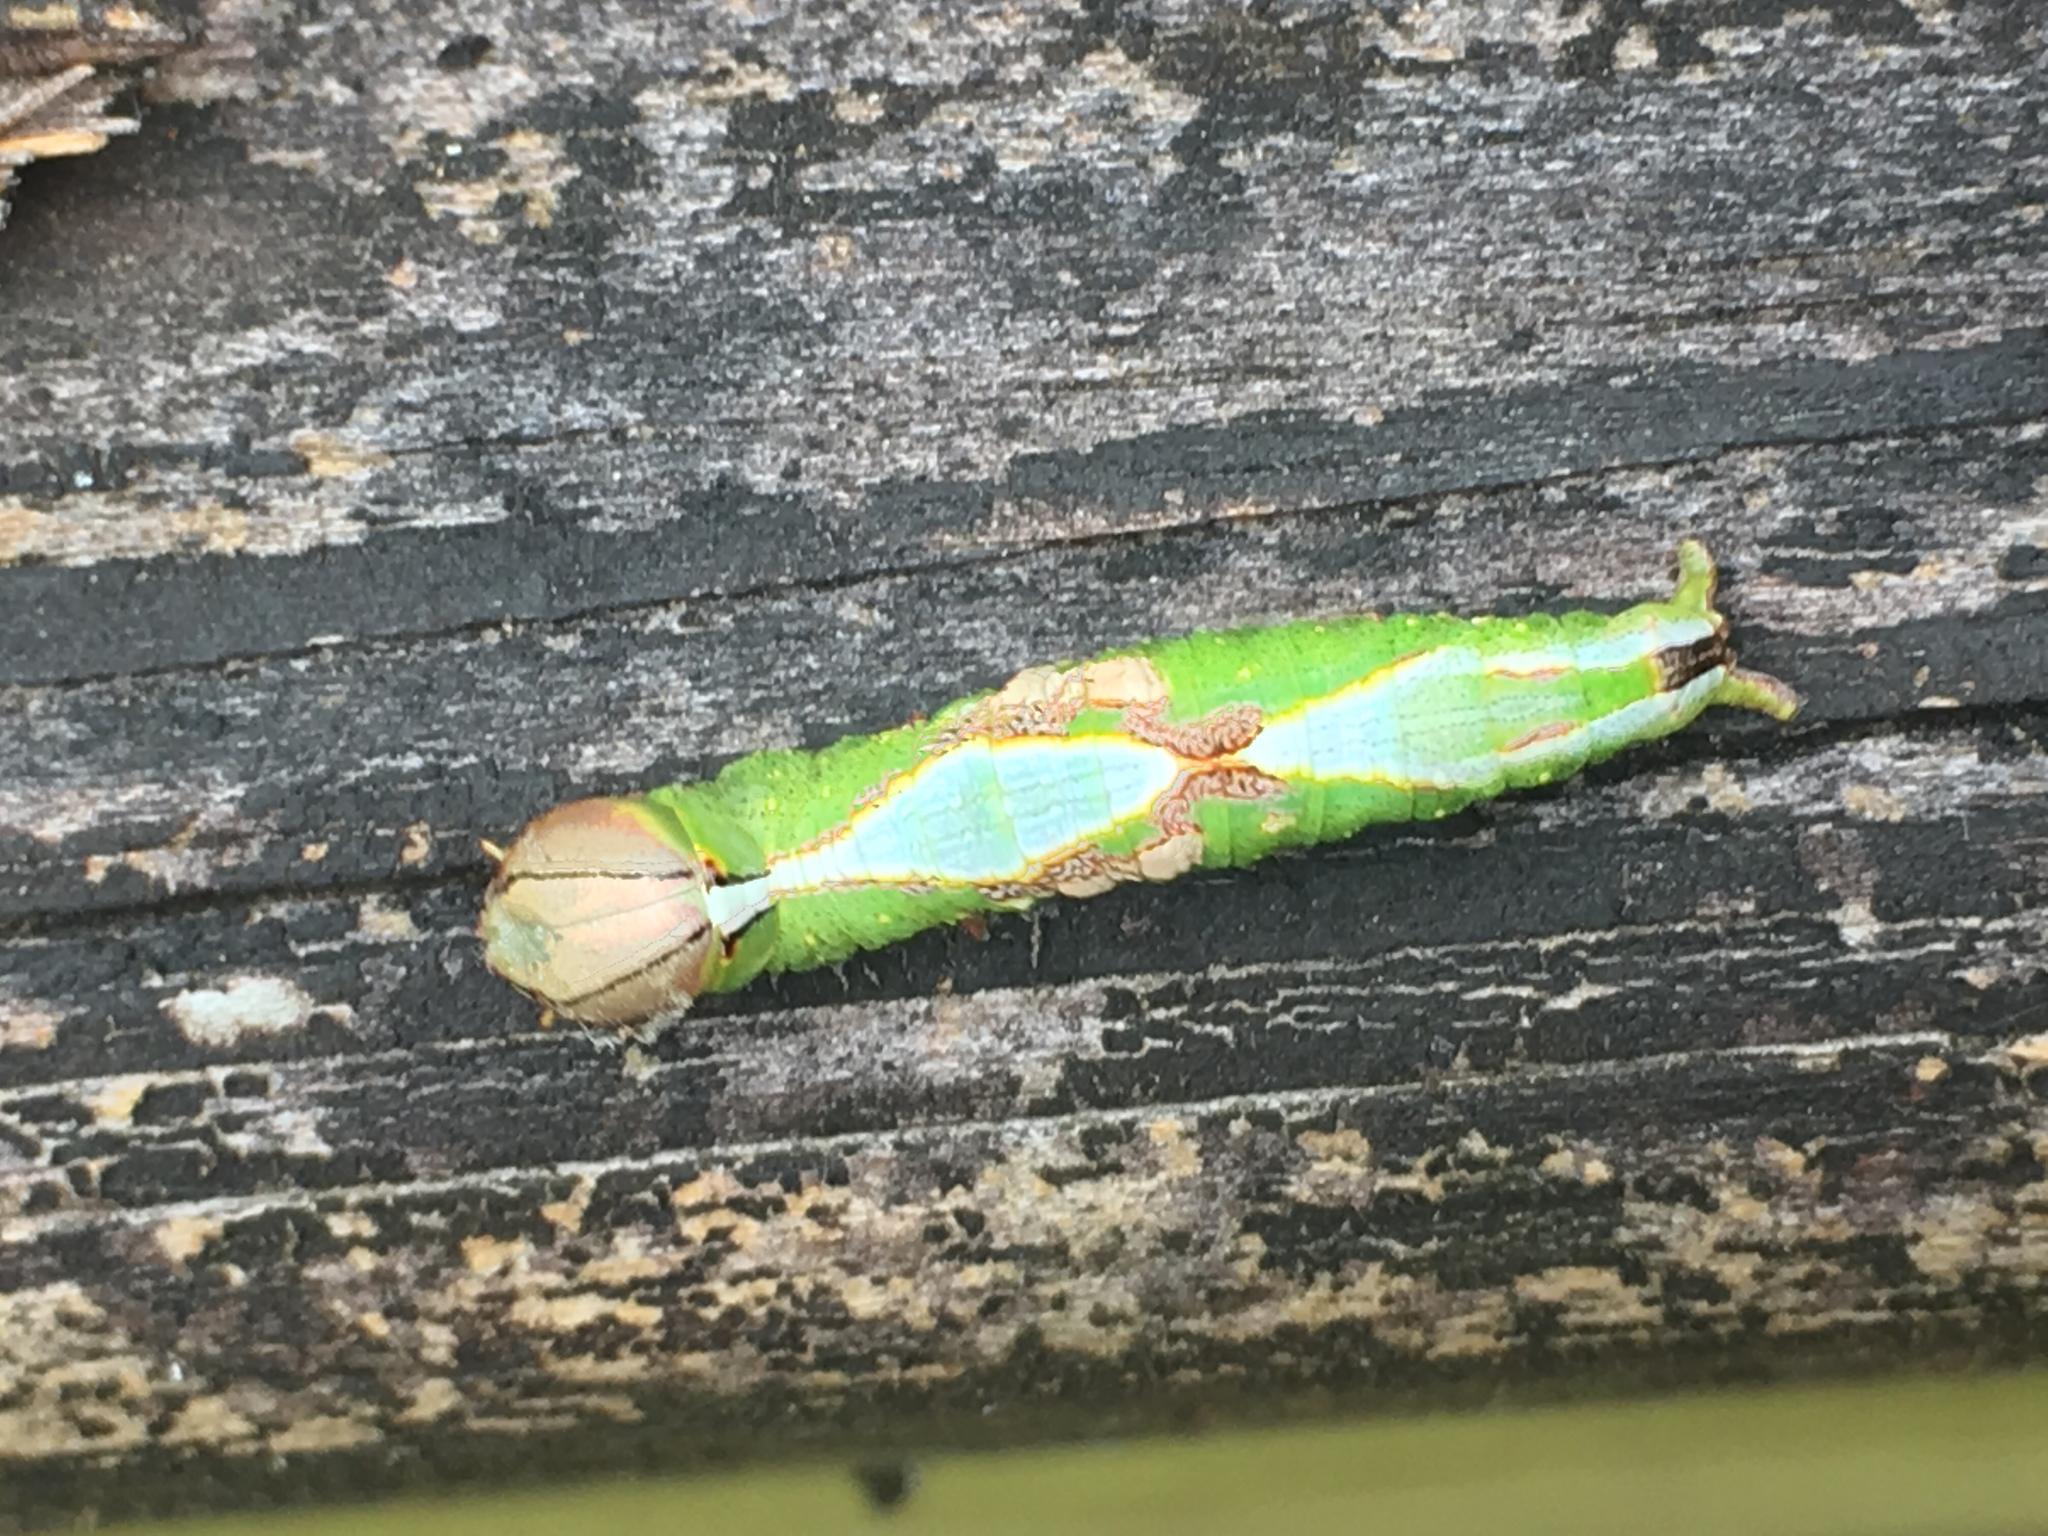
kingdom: Animalia
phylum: Arthropoda
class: Insecta
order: Lepidoptera
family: Notodontidae
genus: Heterocampa
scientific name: Heterocampa umbrata
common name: White-blotched heterocampa
